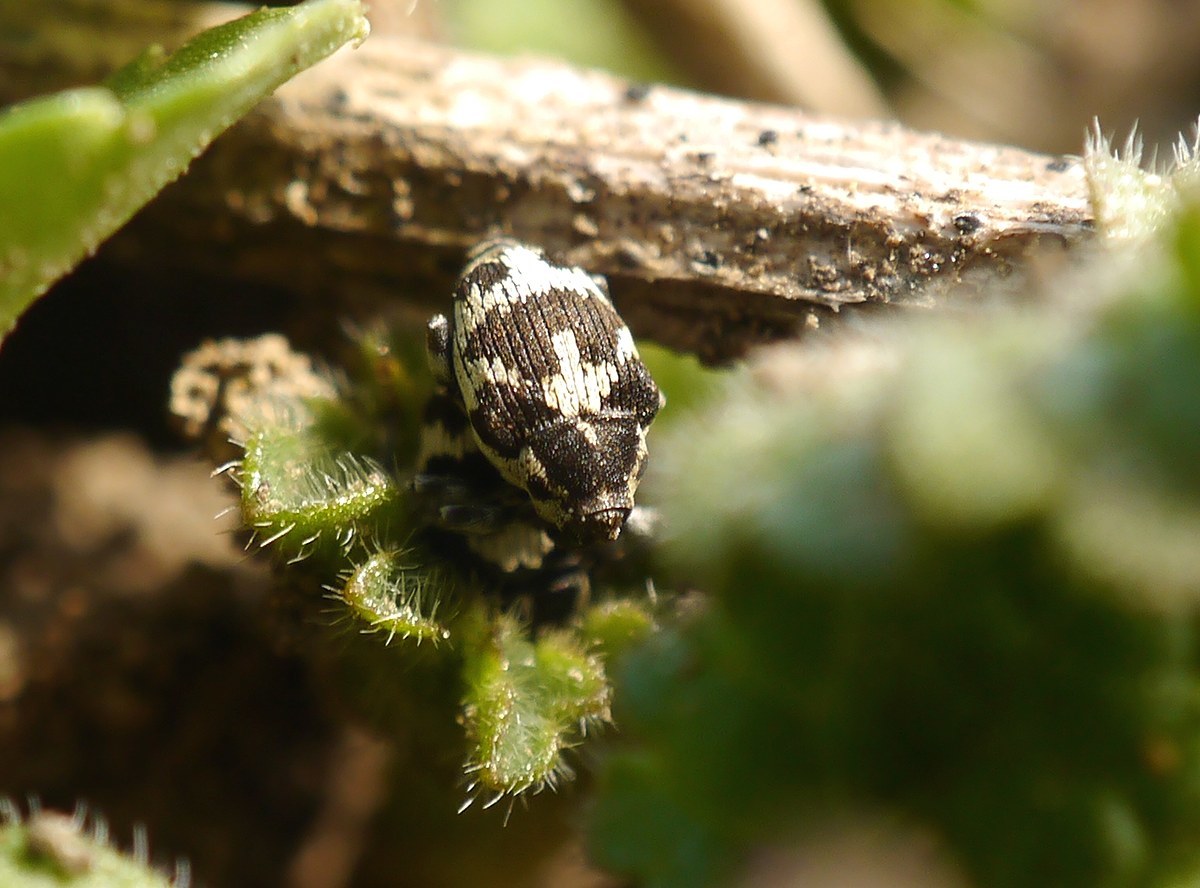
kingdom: Animalia
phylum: Arthropoda
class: Insecta
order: Coleoptera
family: Curculionidae
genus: Thamiocolus
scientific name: Thamiocolus sinapis
